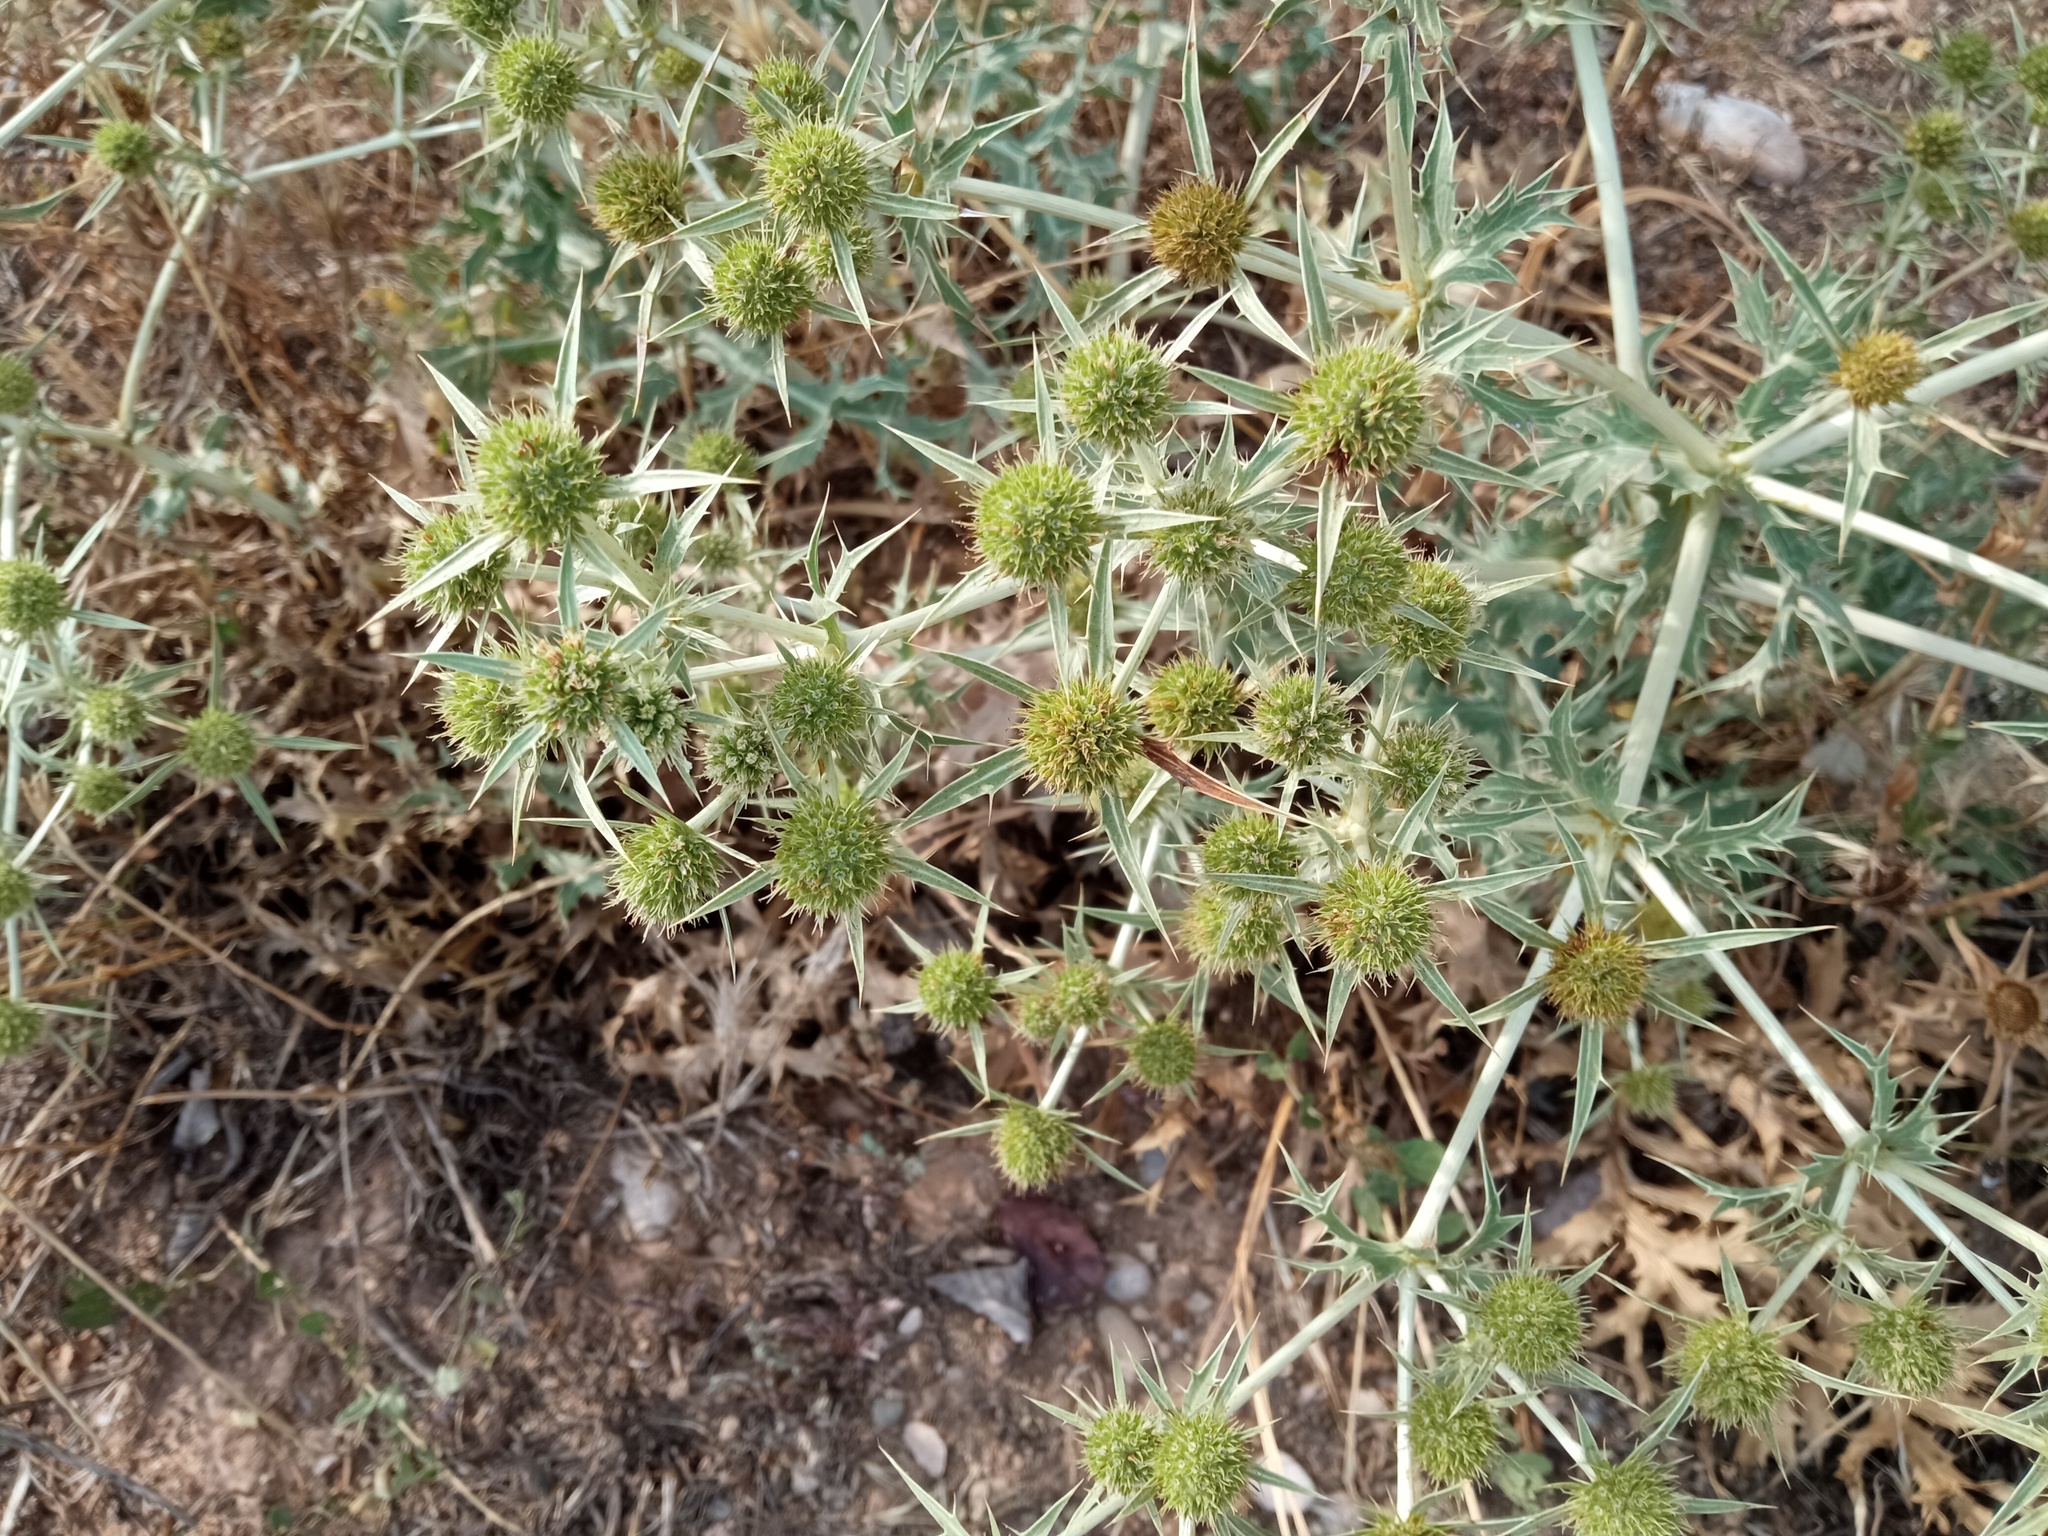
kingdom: Plantae
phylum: Tracheophyta
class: Magnoliopsida
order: Apiales
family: Apiaceae
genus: Eryngium
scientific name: Eryngium campestre
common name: Field eryngo
